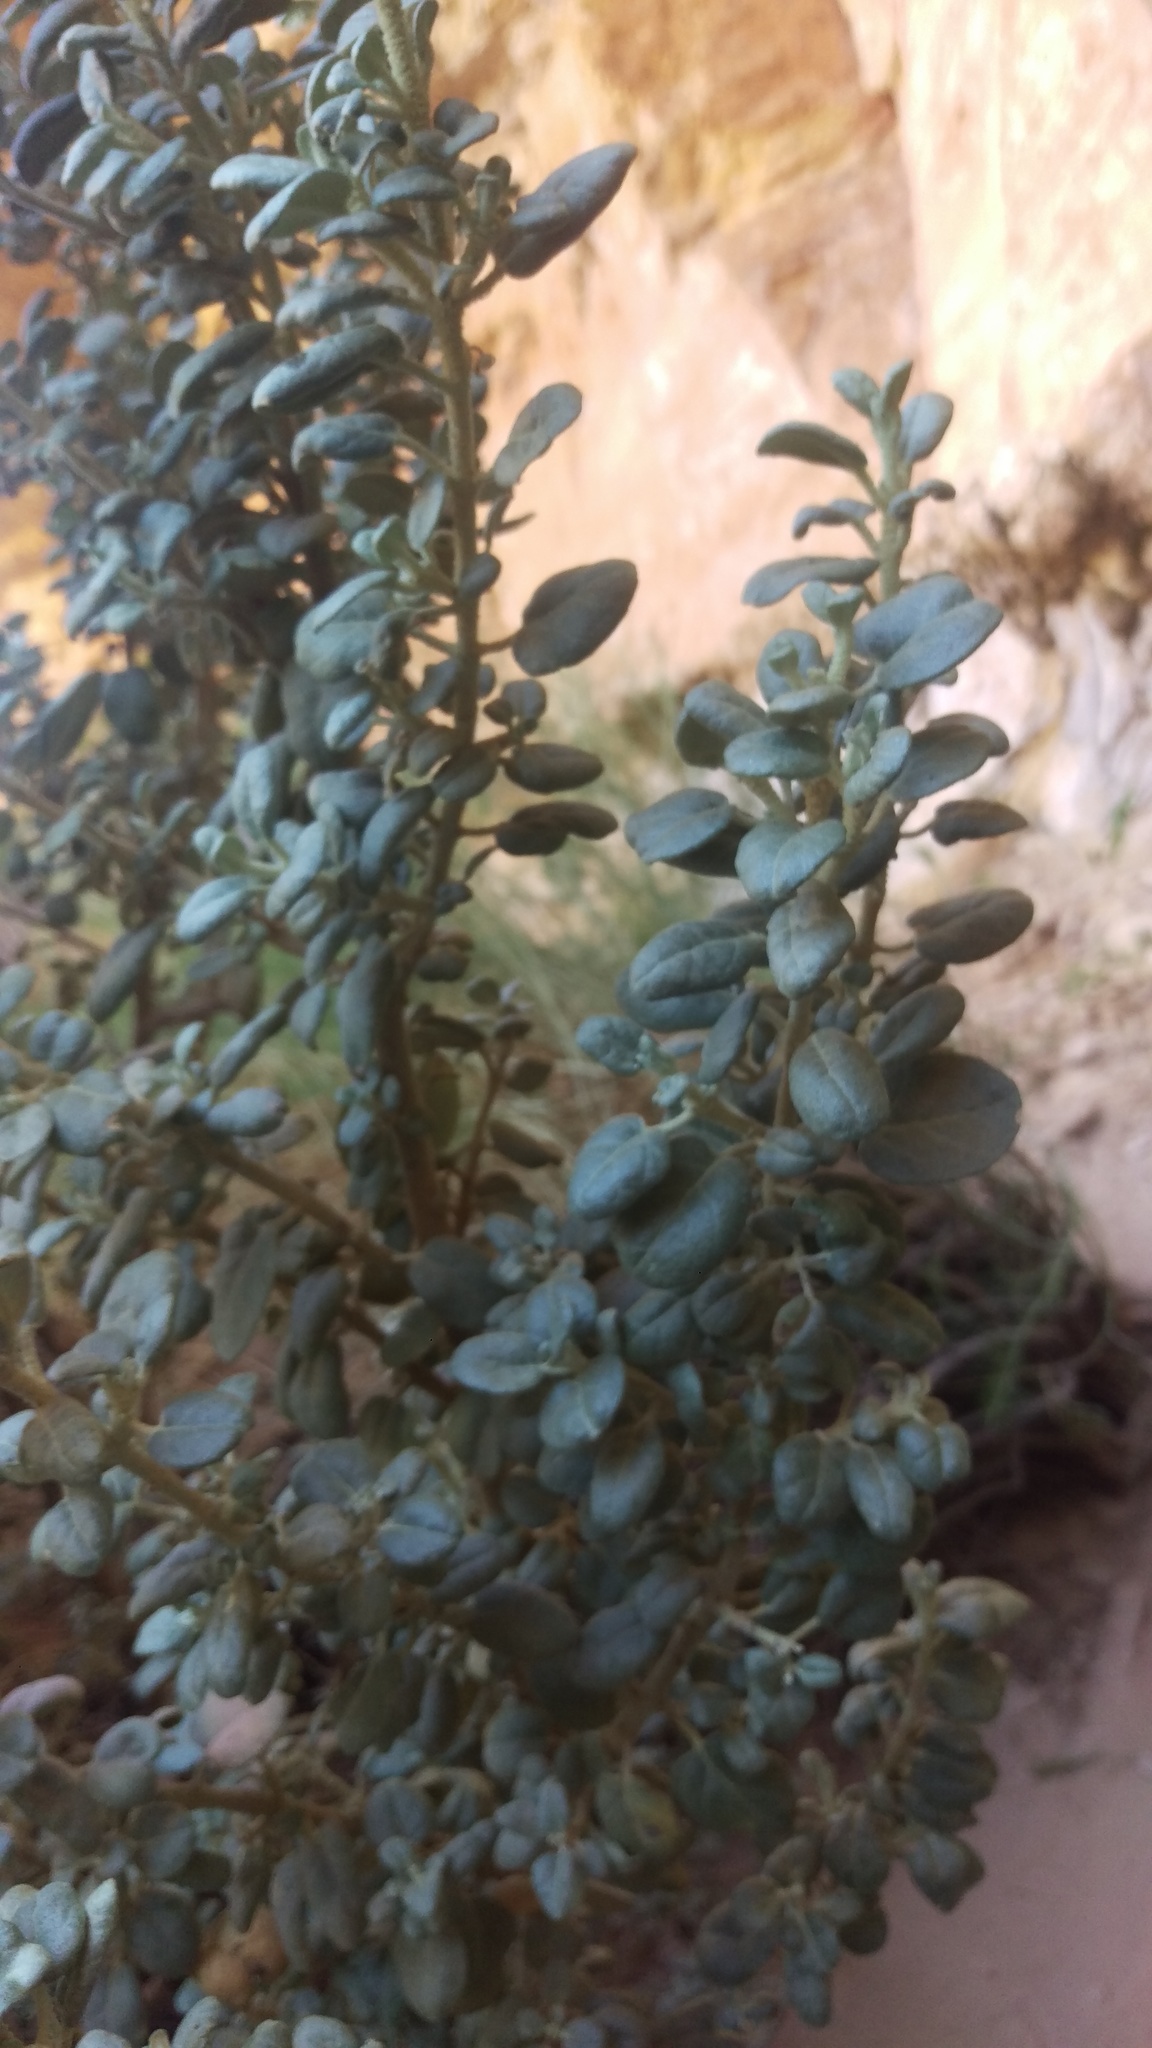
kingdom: Plantae
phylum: Tracheophyta
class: Magnoliopsida
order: Rosales
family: Elaeagnaceae
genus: Shepherdia
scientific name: Shepherdia rotundifolia
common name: Silverscale
